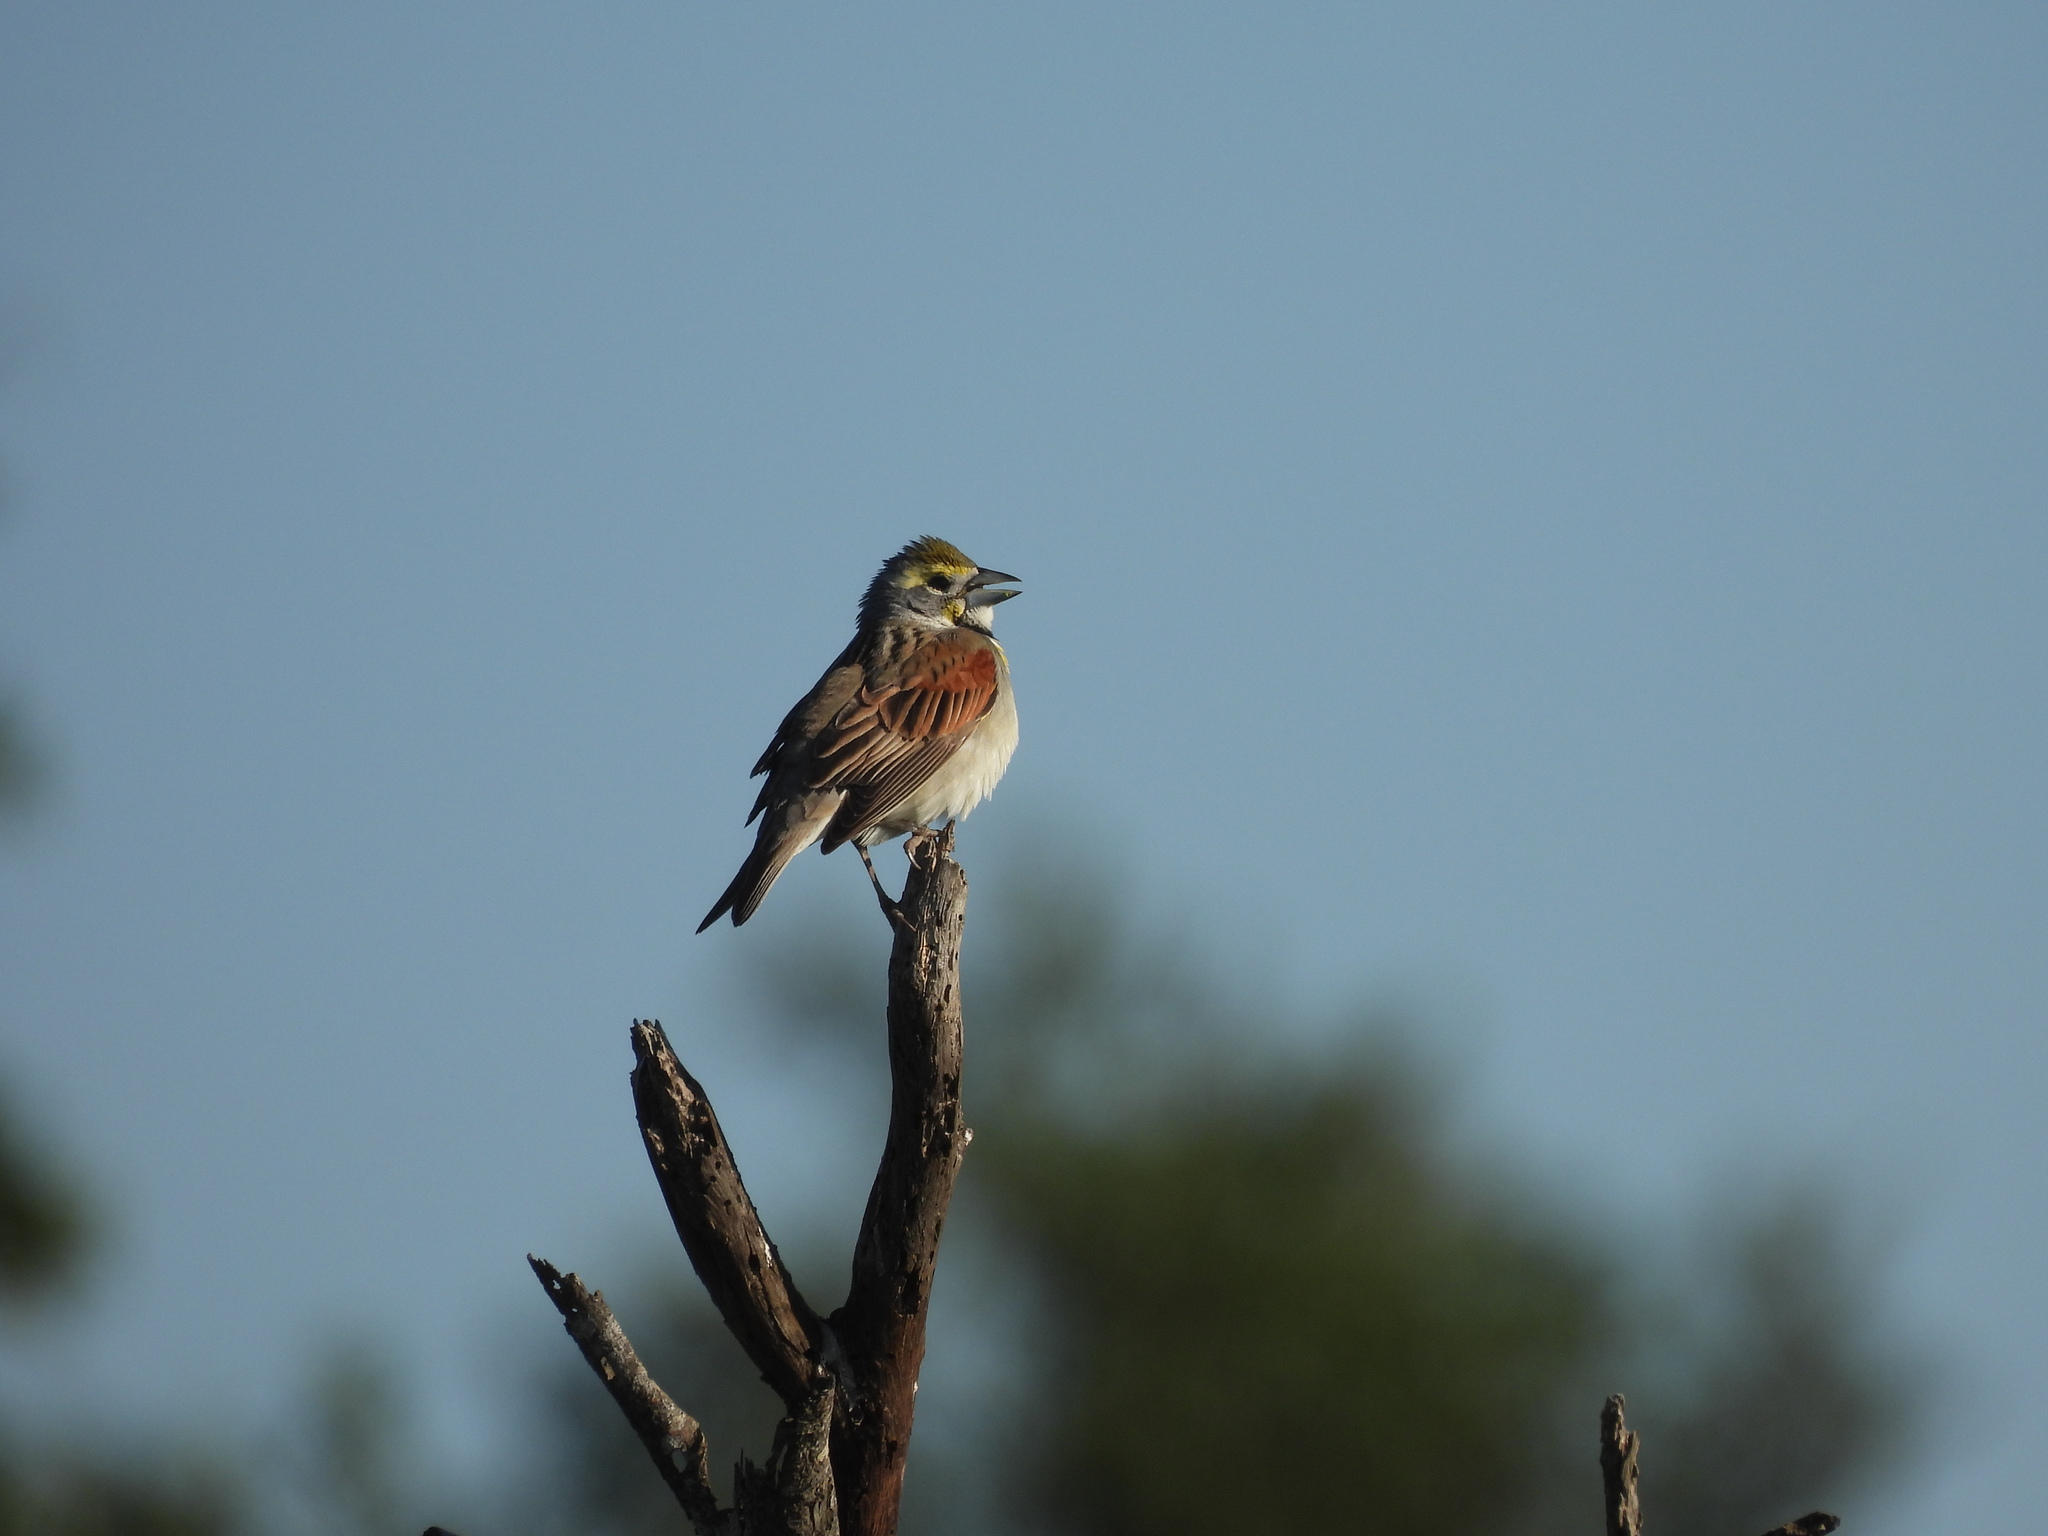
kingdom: Animalia
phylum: Chordata
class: Aves
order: Passeriformes
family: Cardinalidae
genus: Spiza
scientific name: Spiza americana
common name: Dickcissel
